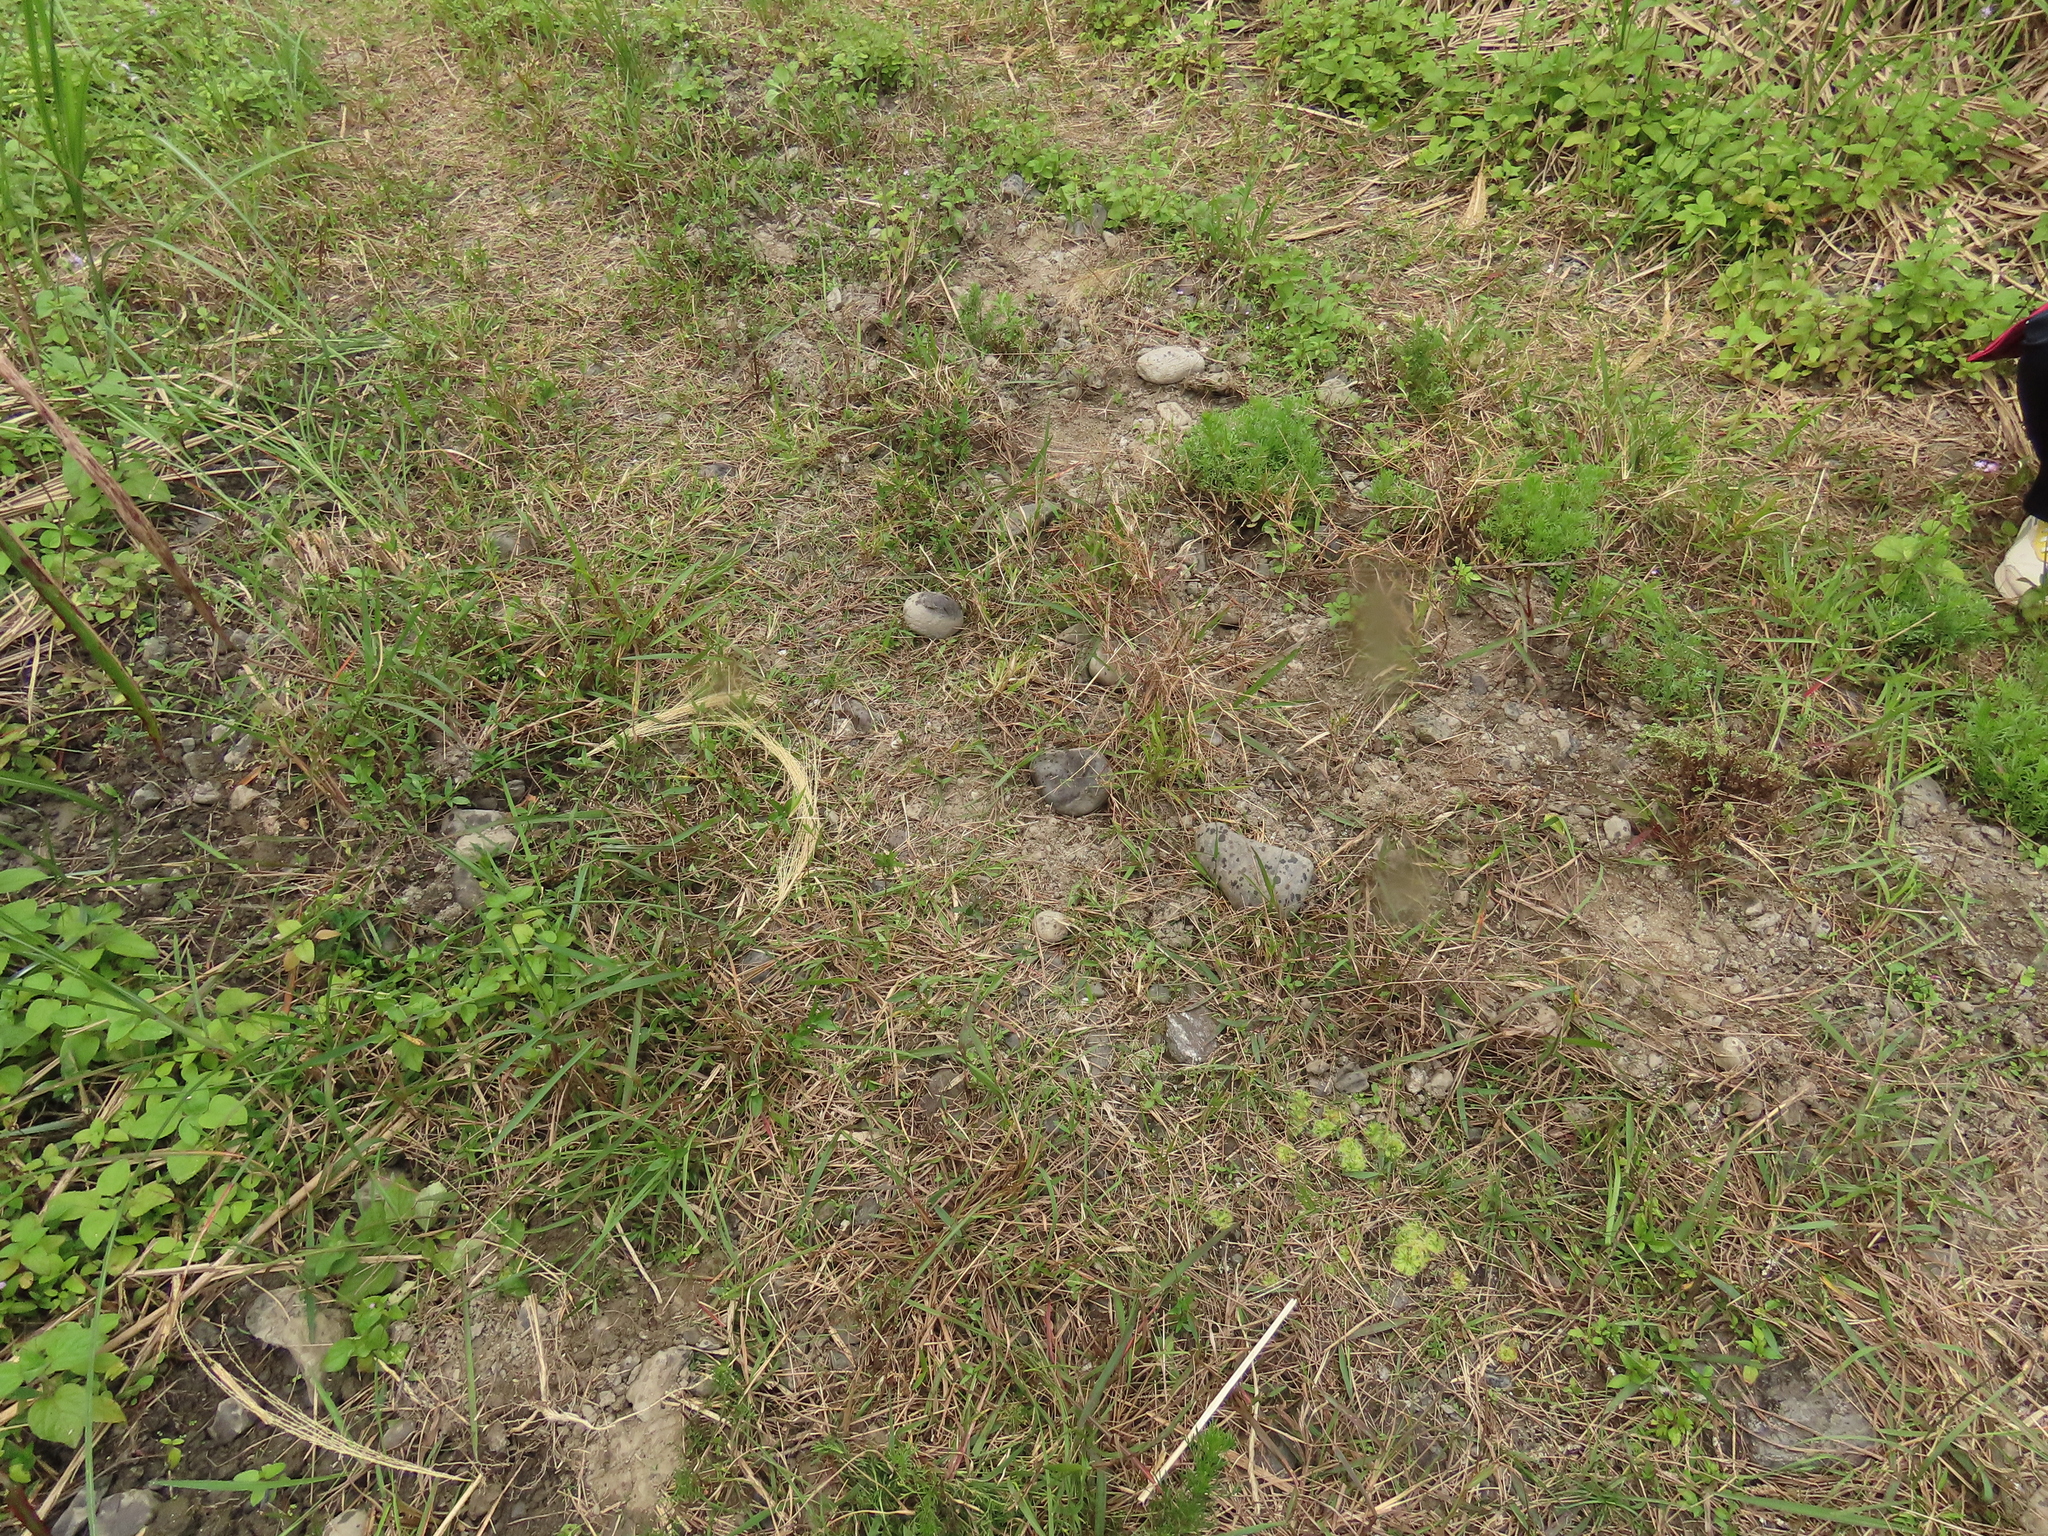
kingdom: Plantae
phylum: Tracheophyta
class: Magnoliopsida
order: Caryophyllales
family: Droseraceae
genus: Drosera
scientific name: Drosera spatulata
